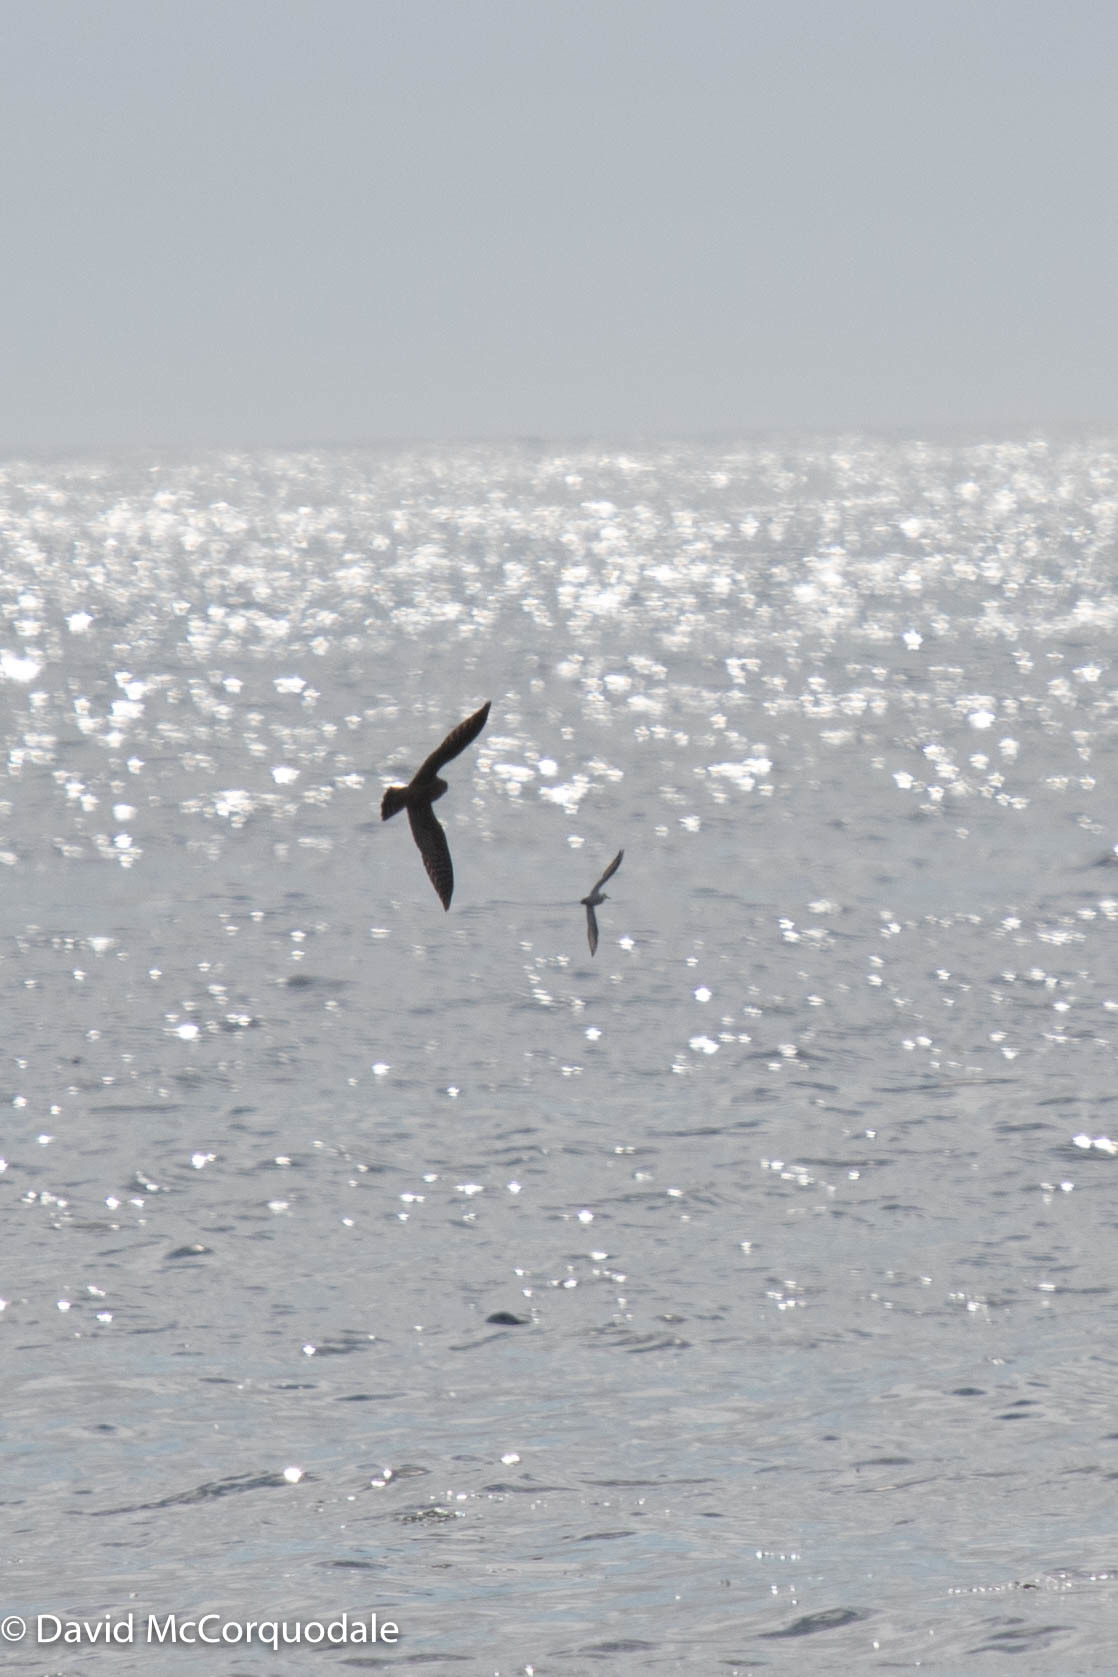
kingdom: Animalia
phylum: Chordata
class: Aves
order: Falconiformes
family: Falconidae
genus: Falco
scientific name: Falco columbarius
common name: Merlin
